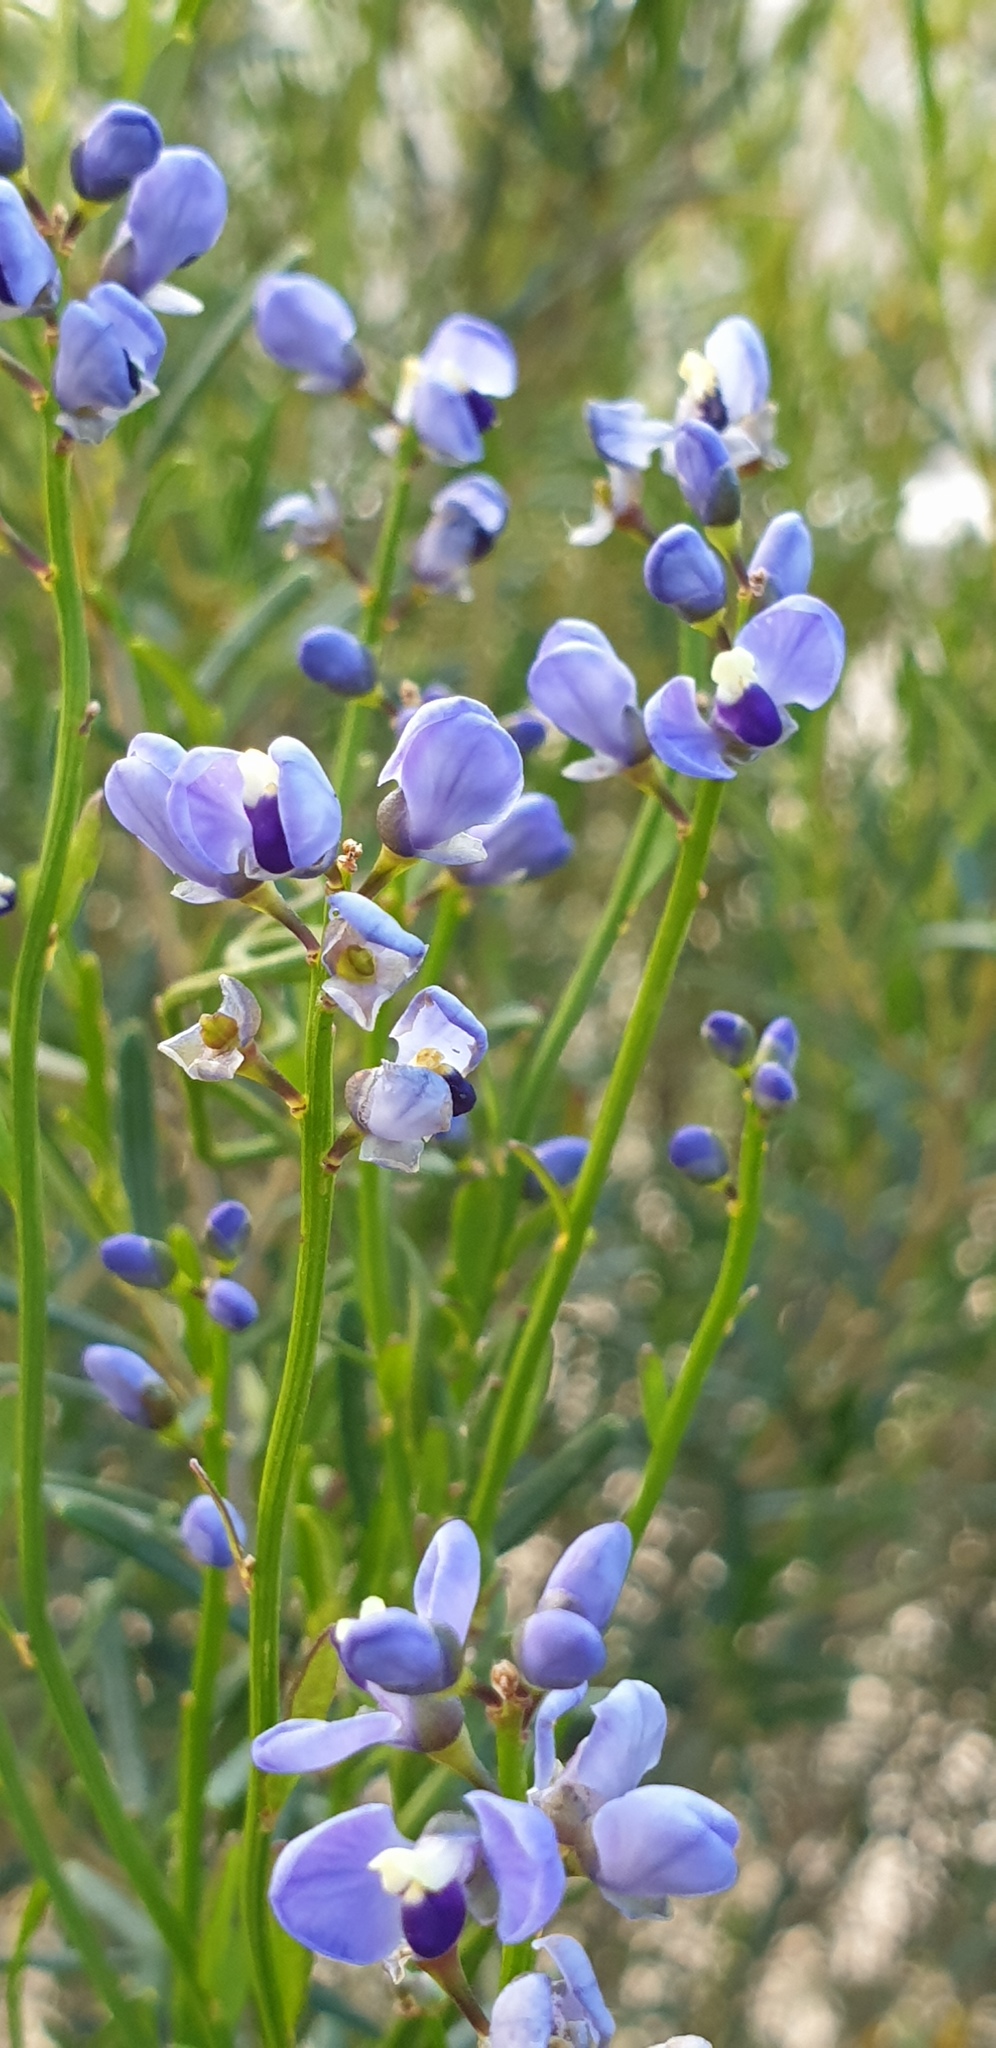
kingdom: Plantae
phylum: Tracheophyta
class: Magnoliopsida
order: Fabales
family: Polygalaceae
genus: Comesperma
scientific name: Comesperma volubile
